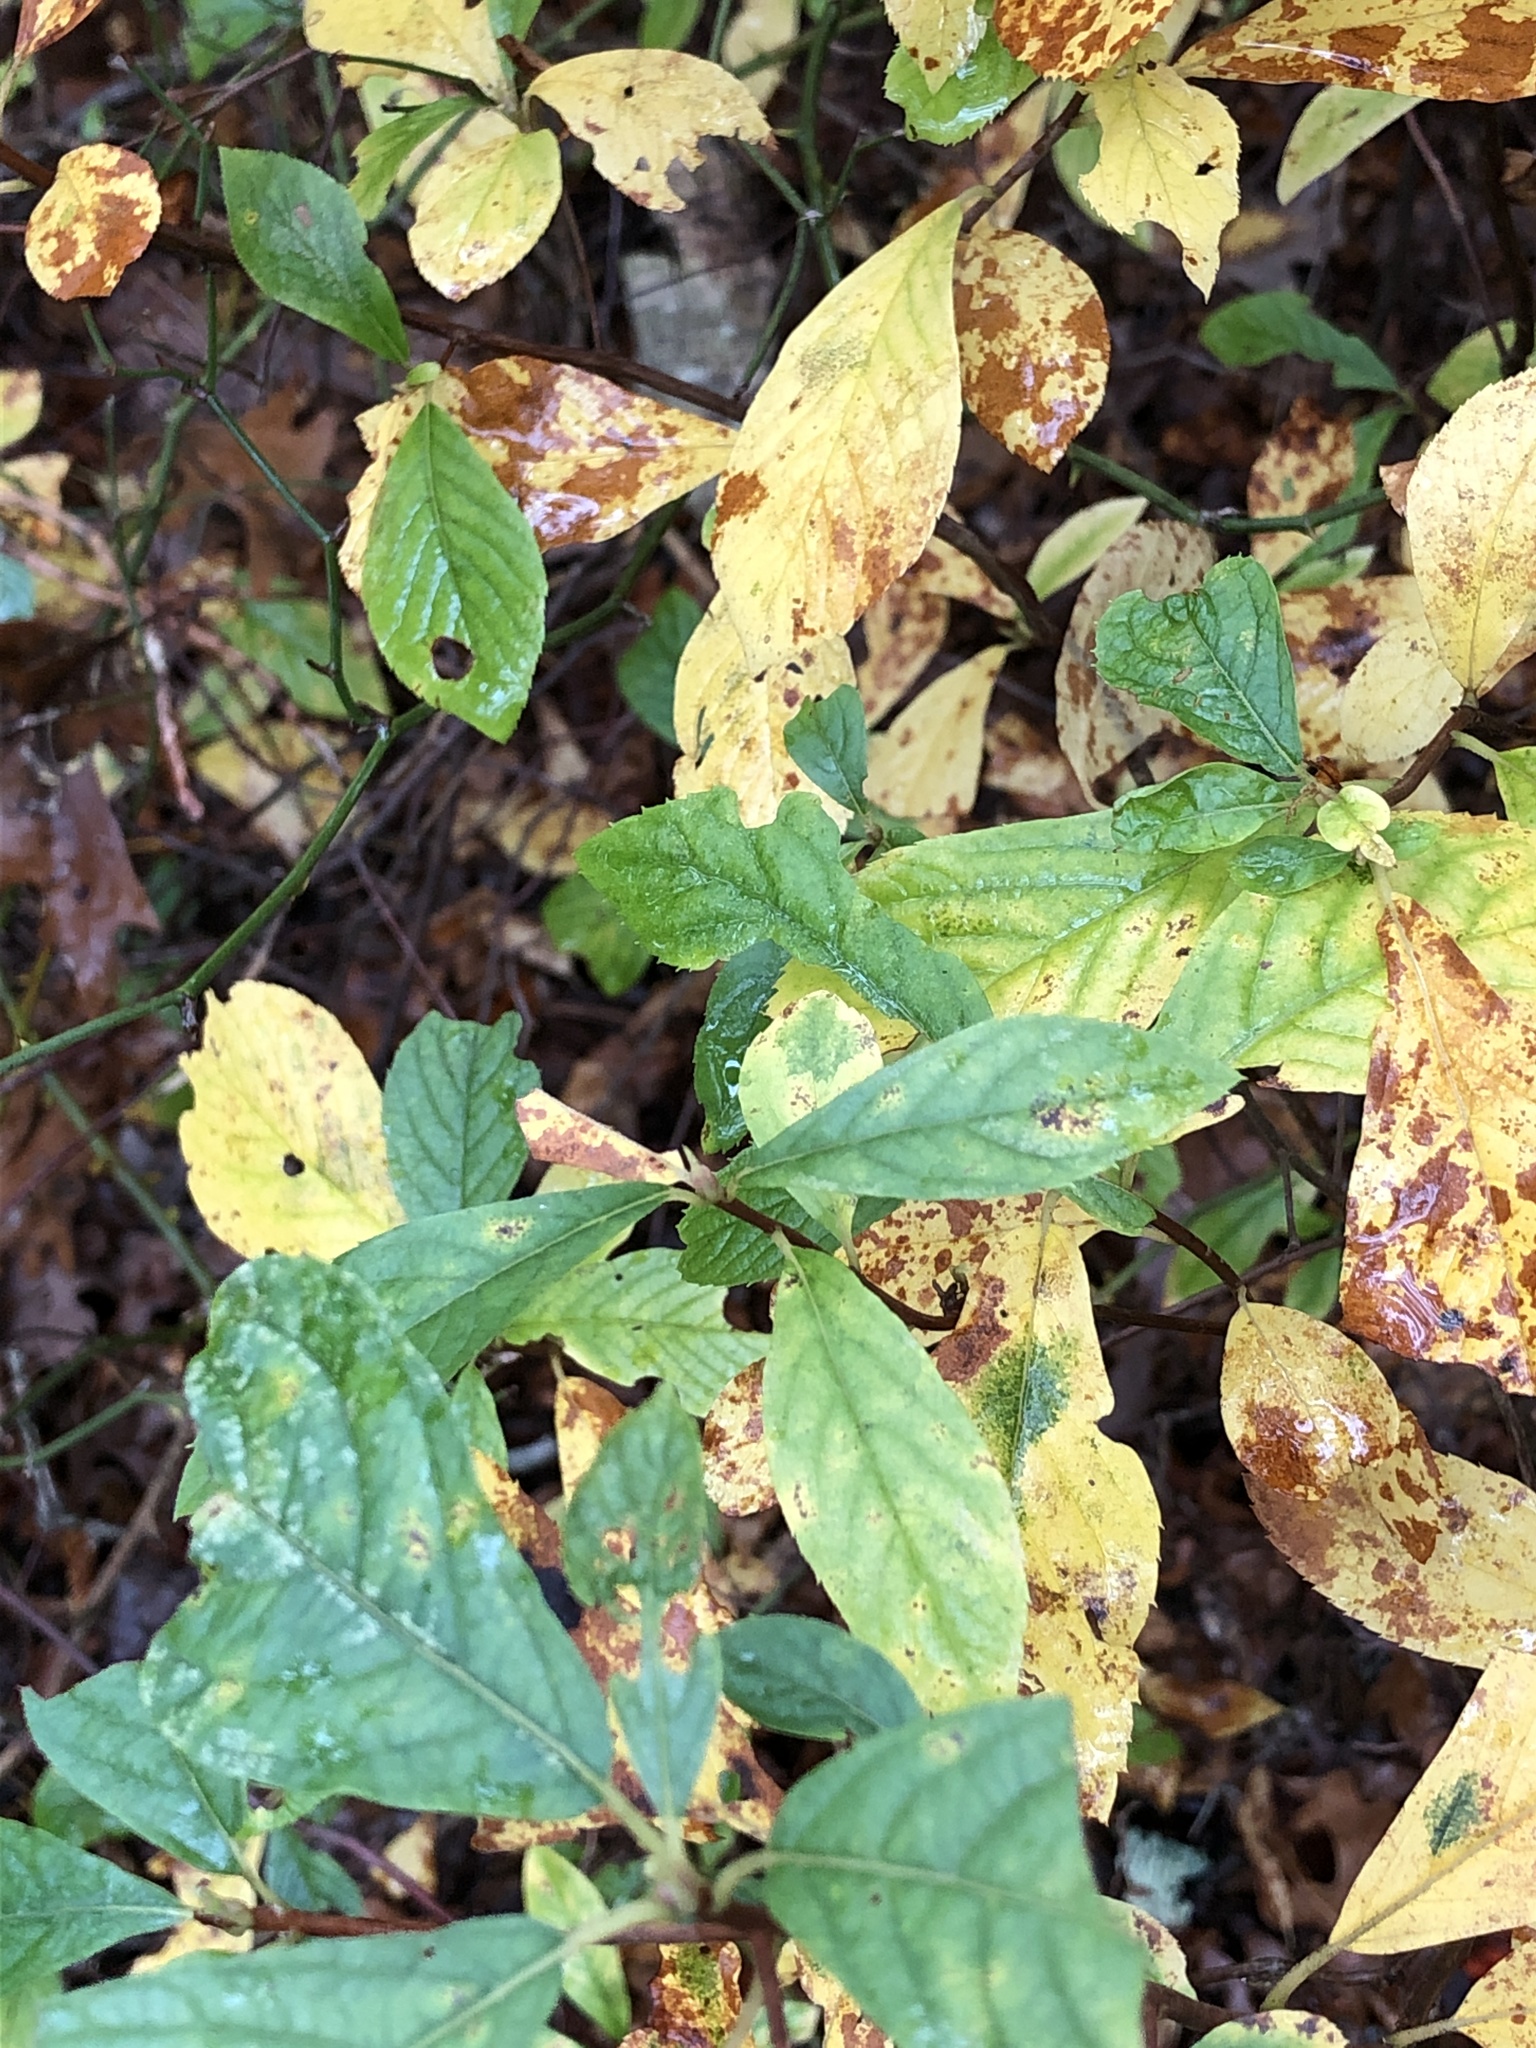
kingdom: Plantae
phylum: Tracheophyta
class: Magnoliopsida
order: Ericales
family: Clethraceae
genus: Clethra
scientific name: Clethra alnifolia
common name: Sweet pepperbush
